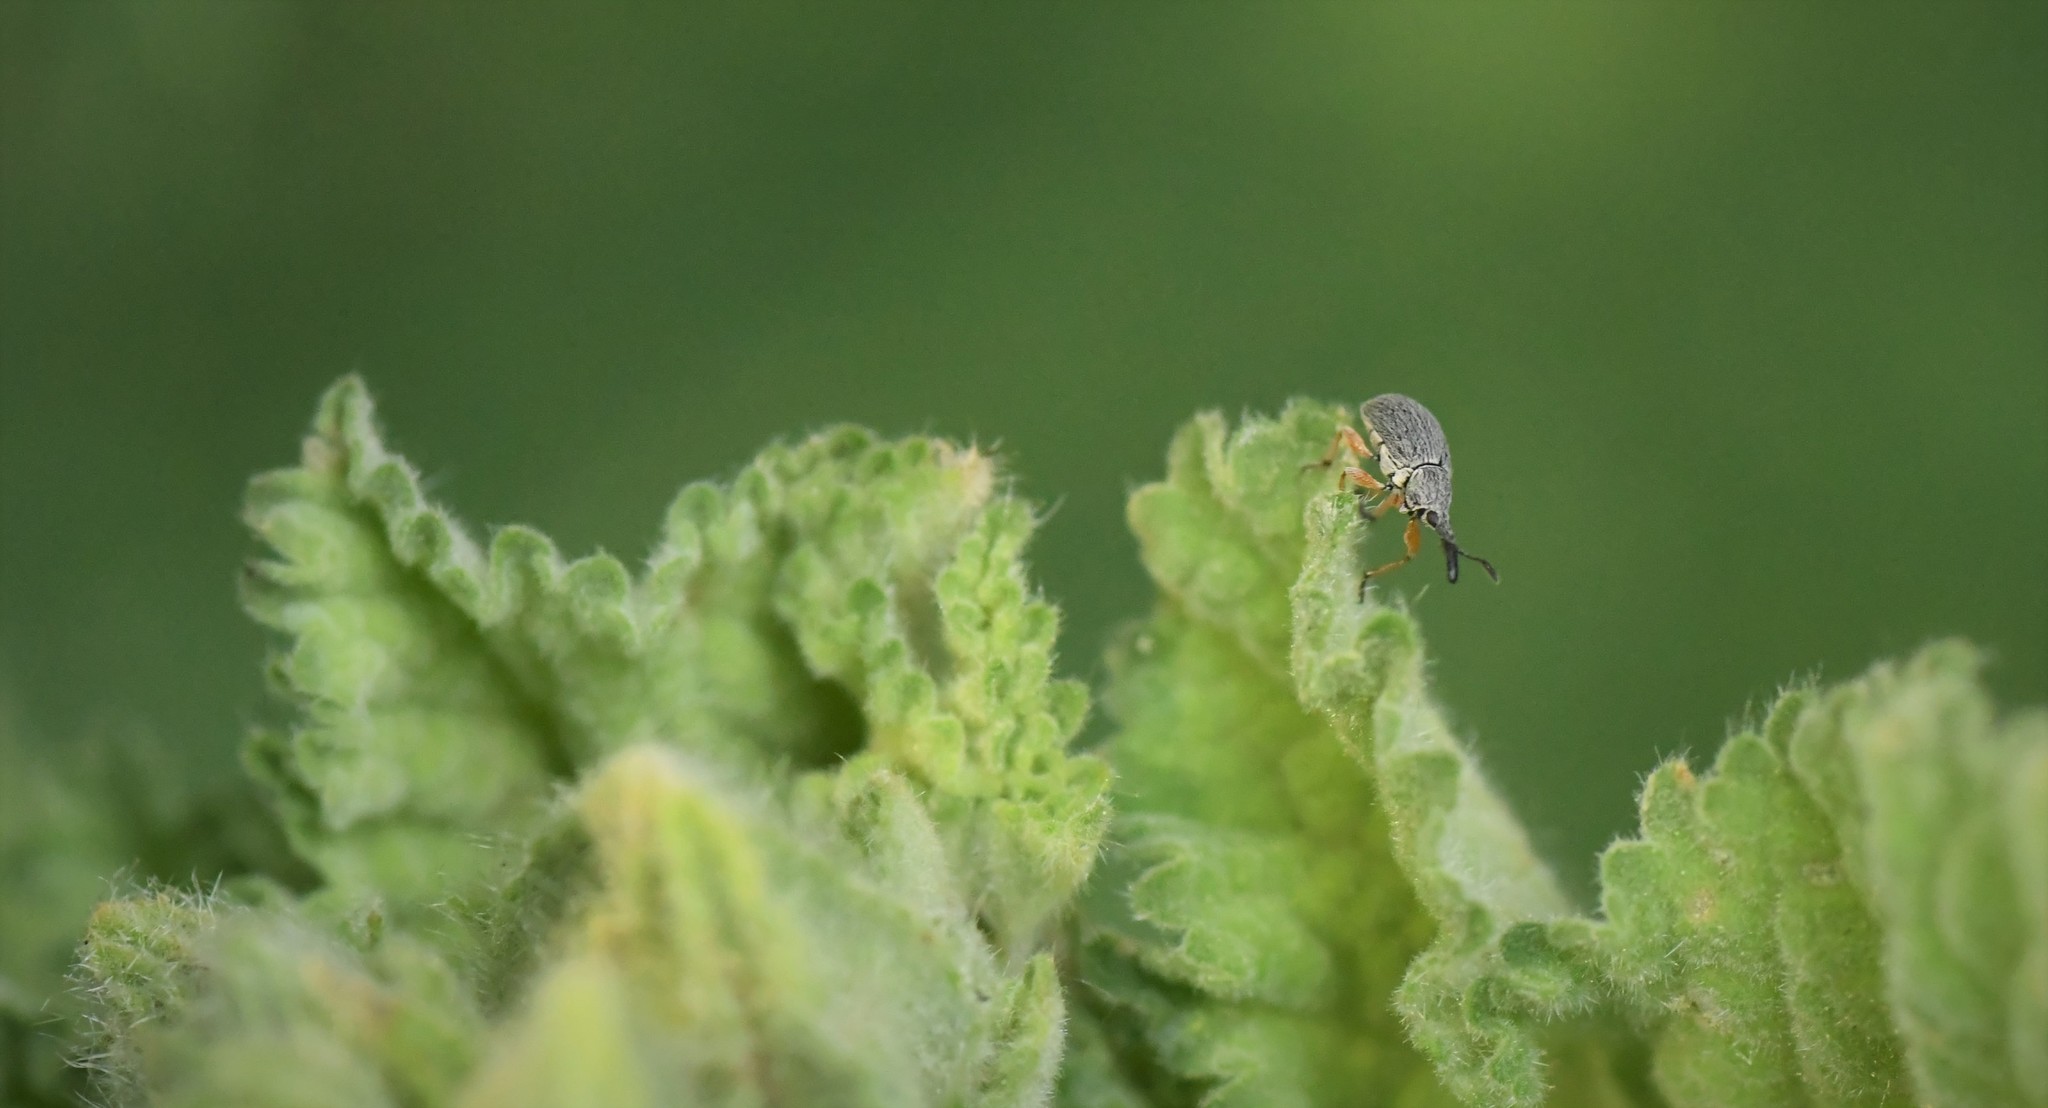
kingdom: Animalia
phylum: Arthropoda
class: Insecta
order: Coleoptera
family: Brentidae
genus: Rhopalapion
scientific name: Rhopalapion longirostre
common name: Hollyhock weevil
